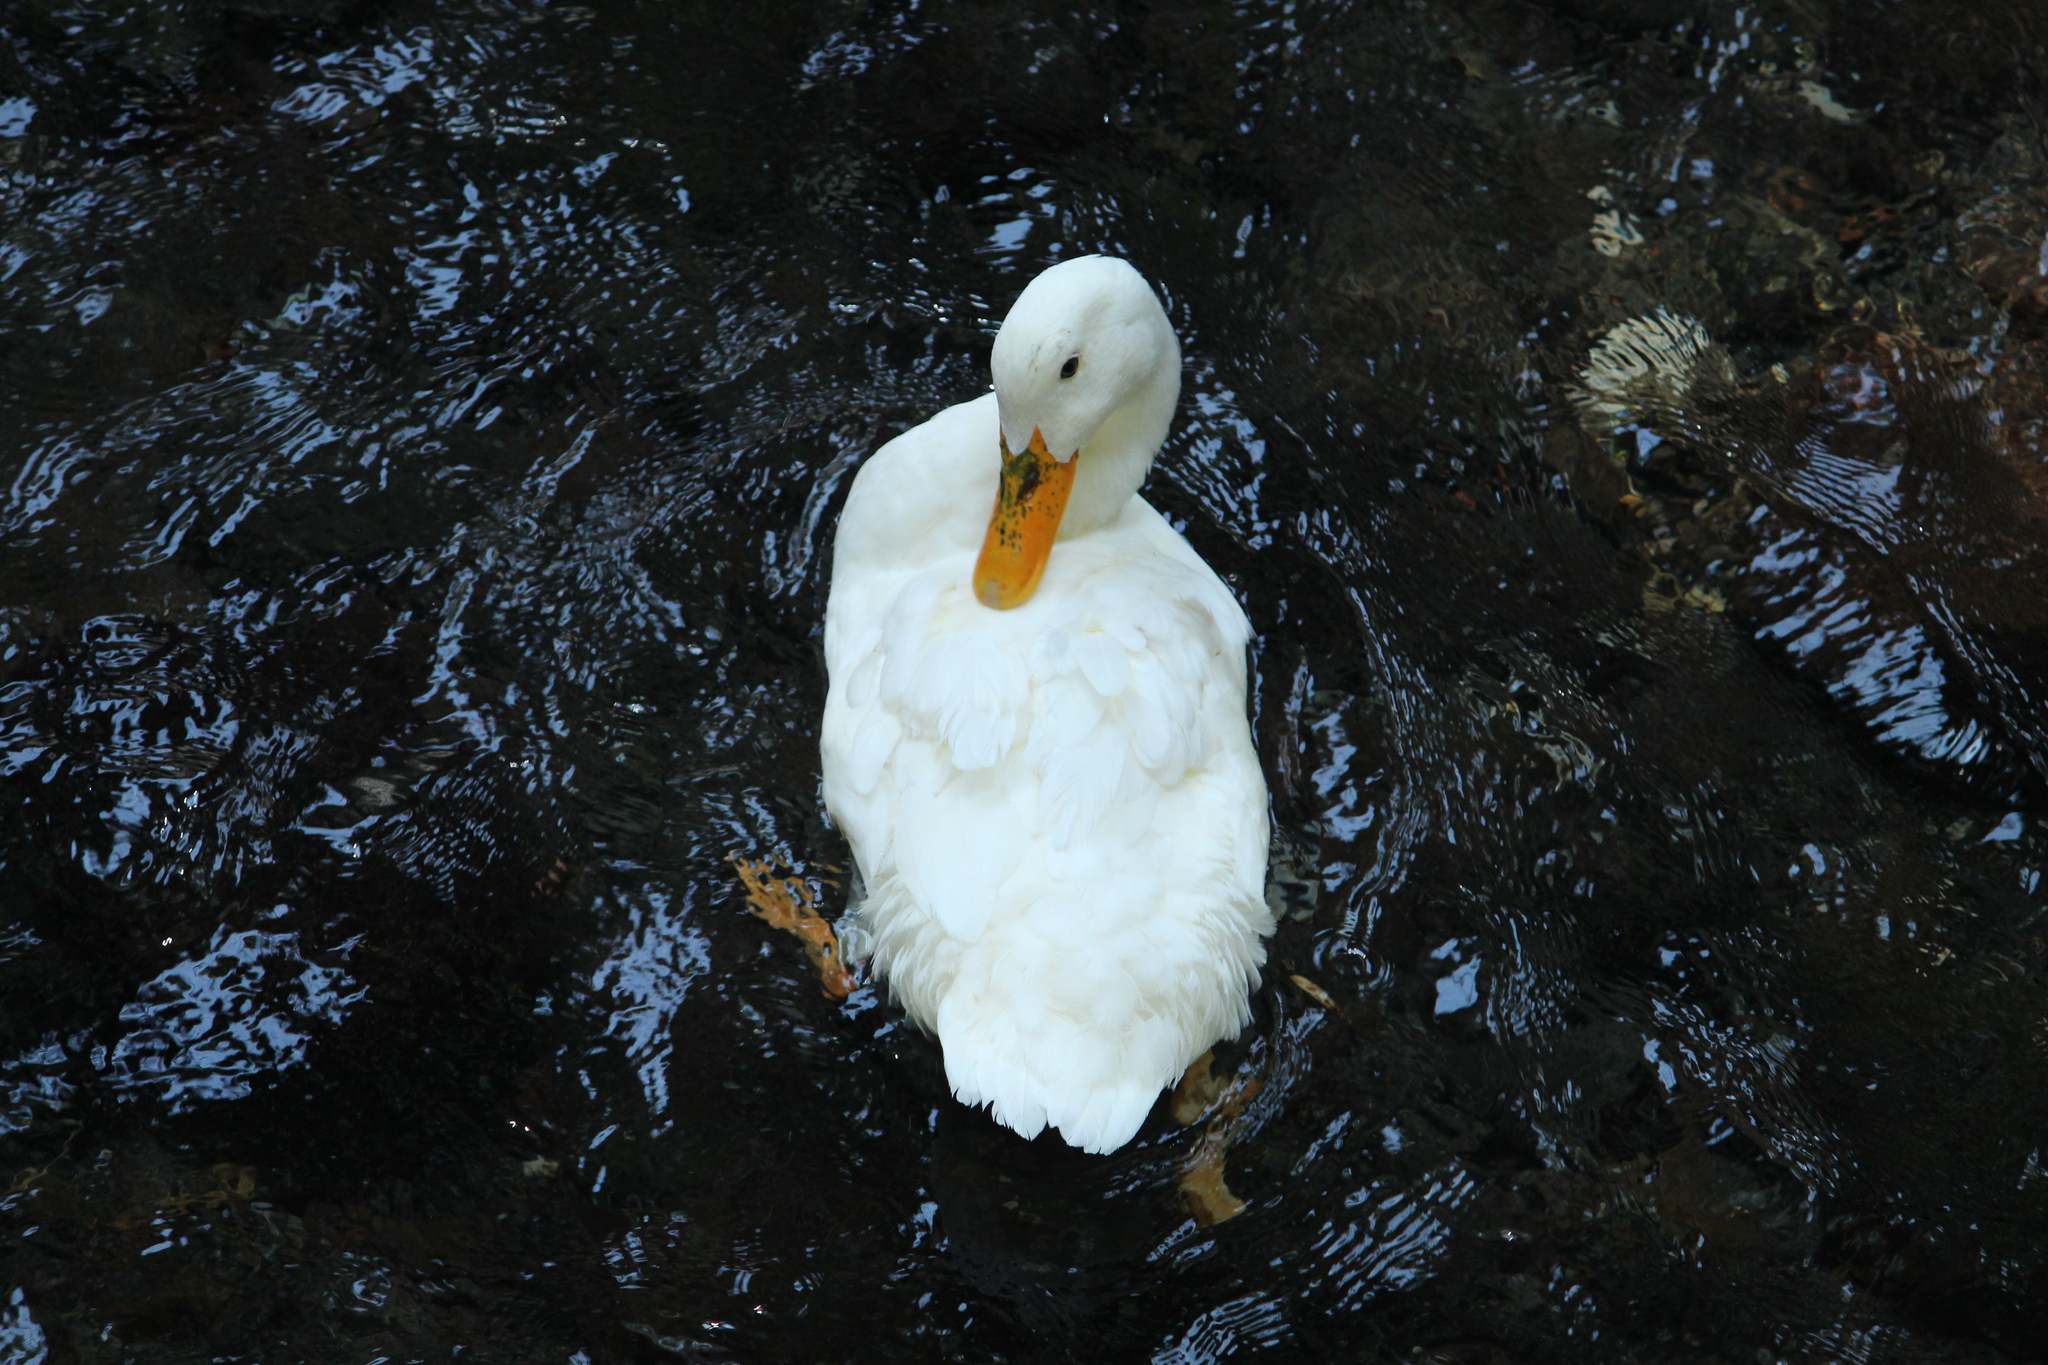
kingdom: Animalia
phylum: Chordata
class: Aves
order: Anseriformes
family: Anatidae
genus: Anas
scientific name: Anas platyrhynchos
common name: Mallard
